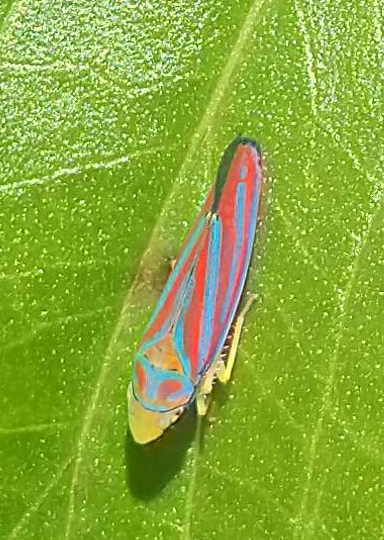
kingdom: Animalia
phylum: Arthropoda
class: Insecta
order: Hemiptera
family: Cicadellidae
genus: Graphocephala
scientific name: Graphocephala coccinea
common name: Candy-striped leafhopper
